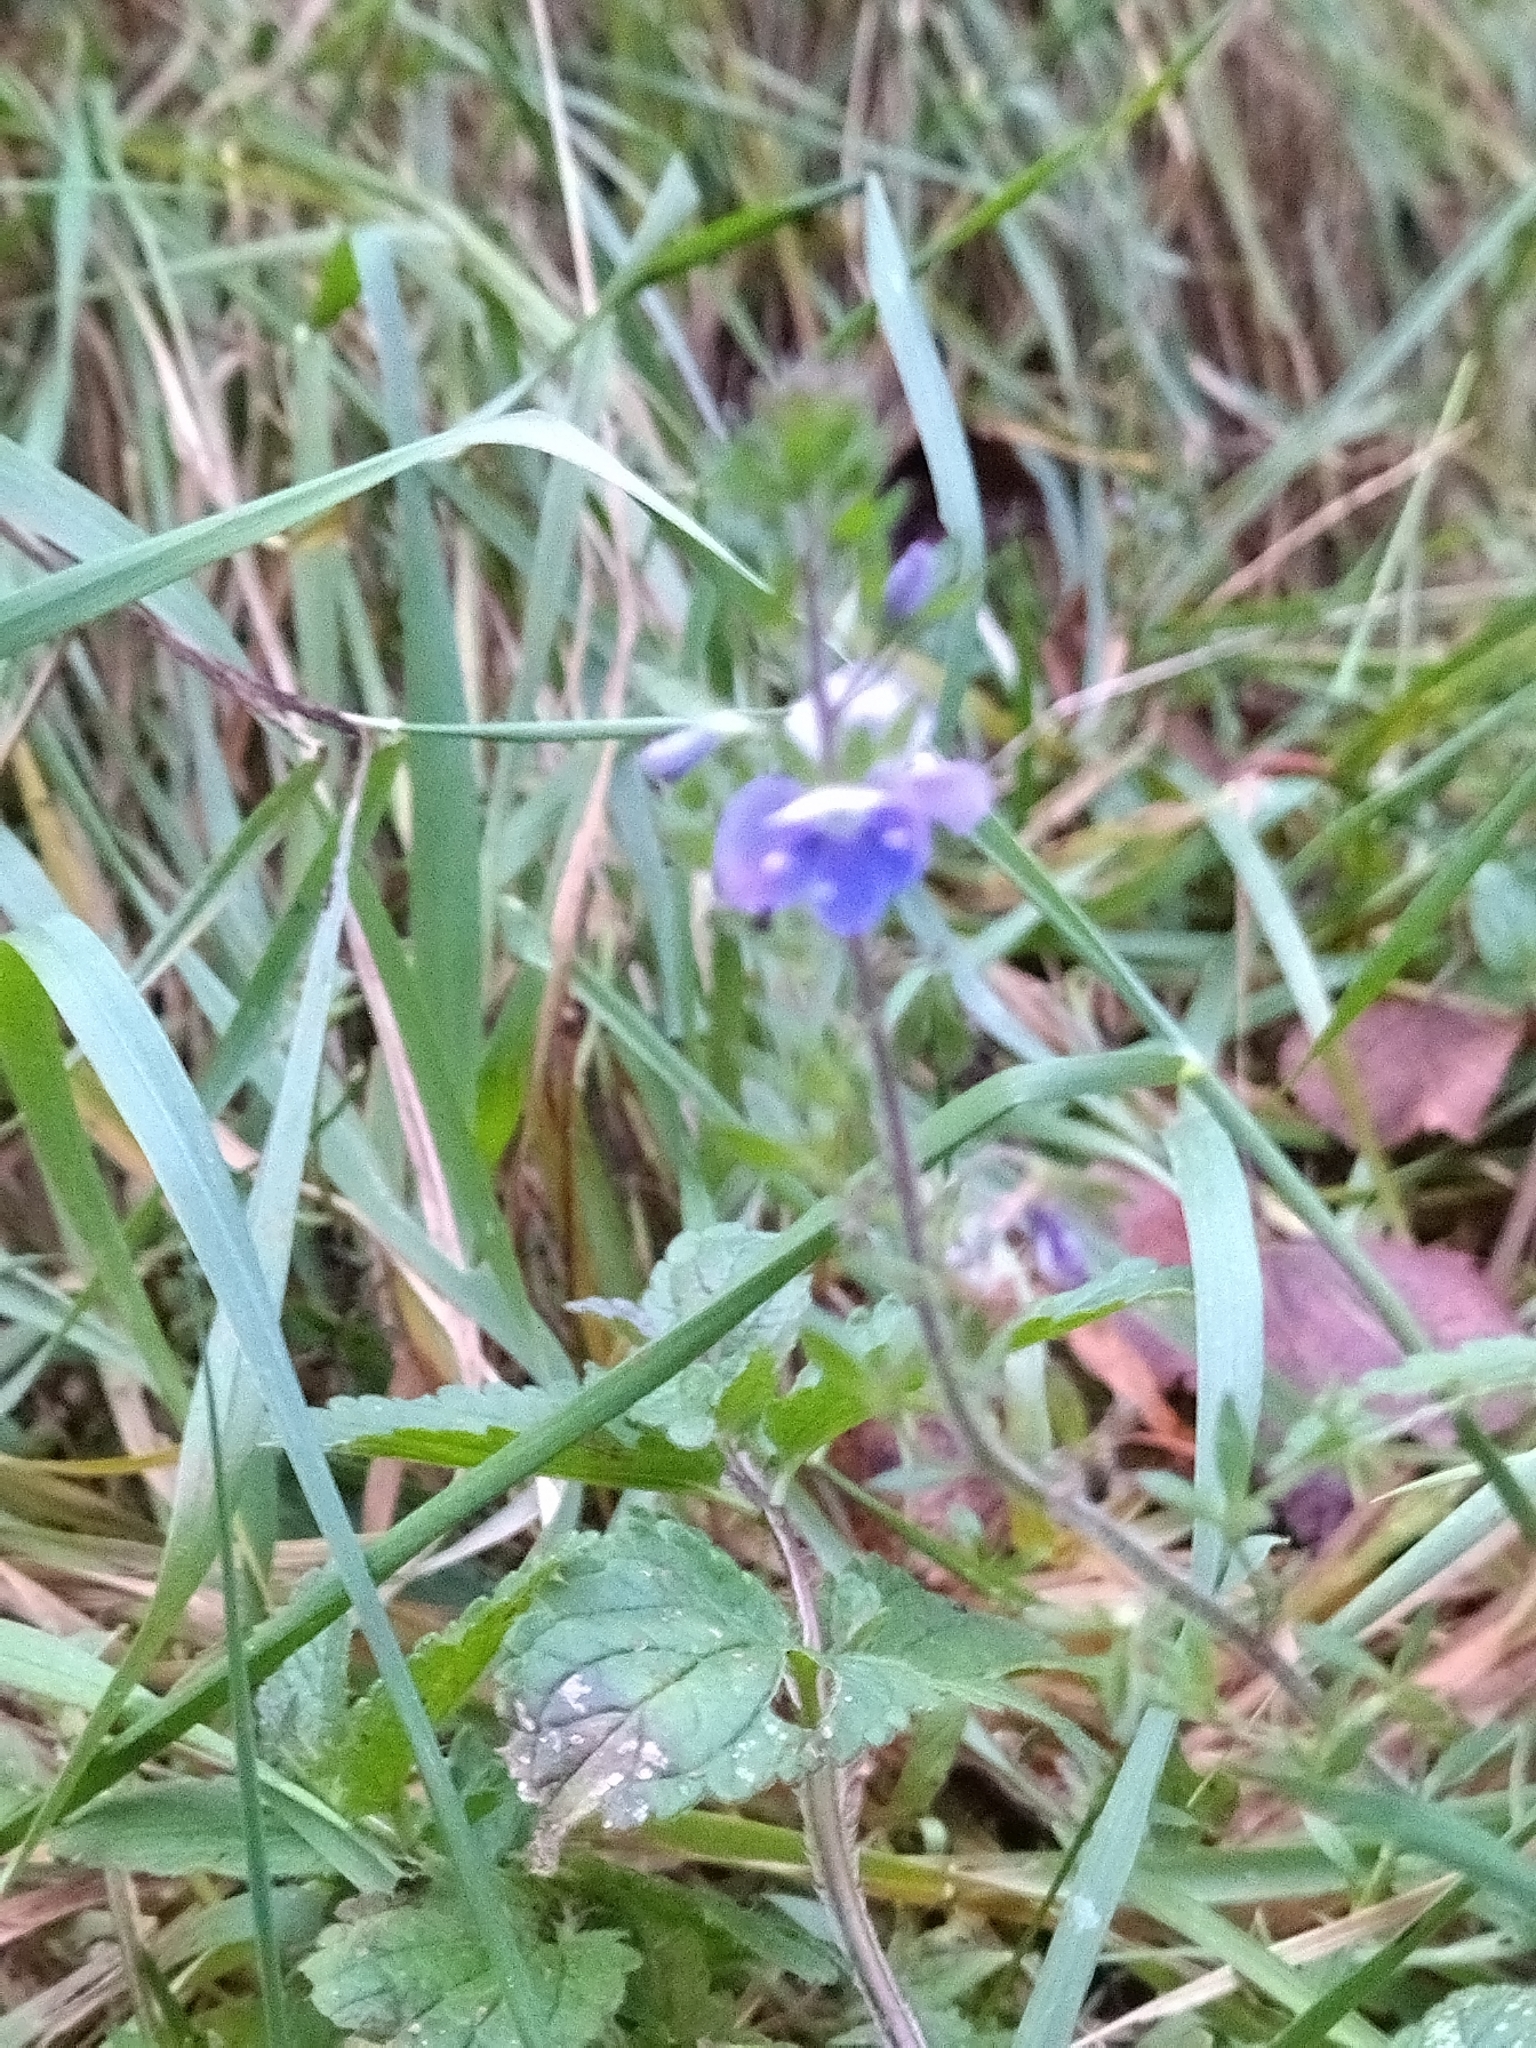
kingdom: Plantae
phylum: Tracheophyta
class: Magnoliopsida
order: Lamiales
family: Plantaginaceae
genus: Veronica
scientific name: Veronica chamaedrys
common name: Germander speedwell
